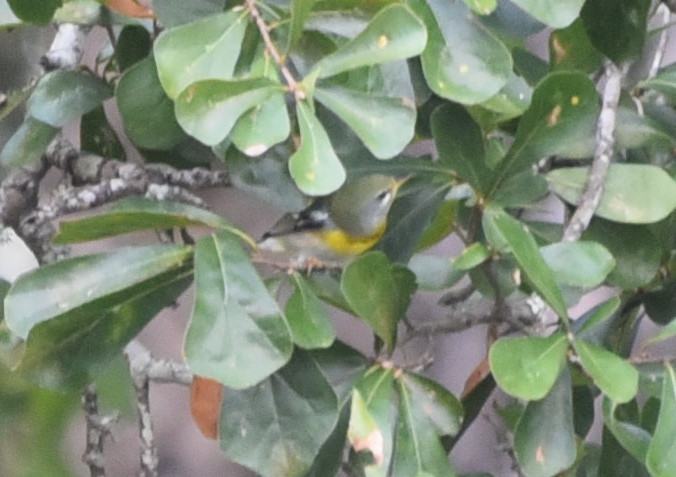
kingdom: Animalia
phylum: Chordata
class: Aves
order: Passeriformes
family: Parulidae
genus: Setophaga
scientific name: Setophaga americana
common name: Northern parula
